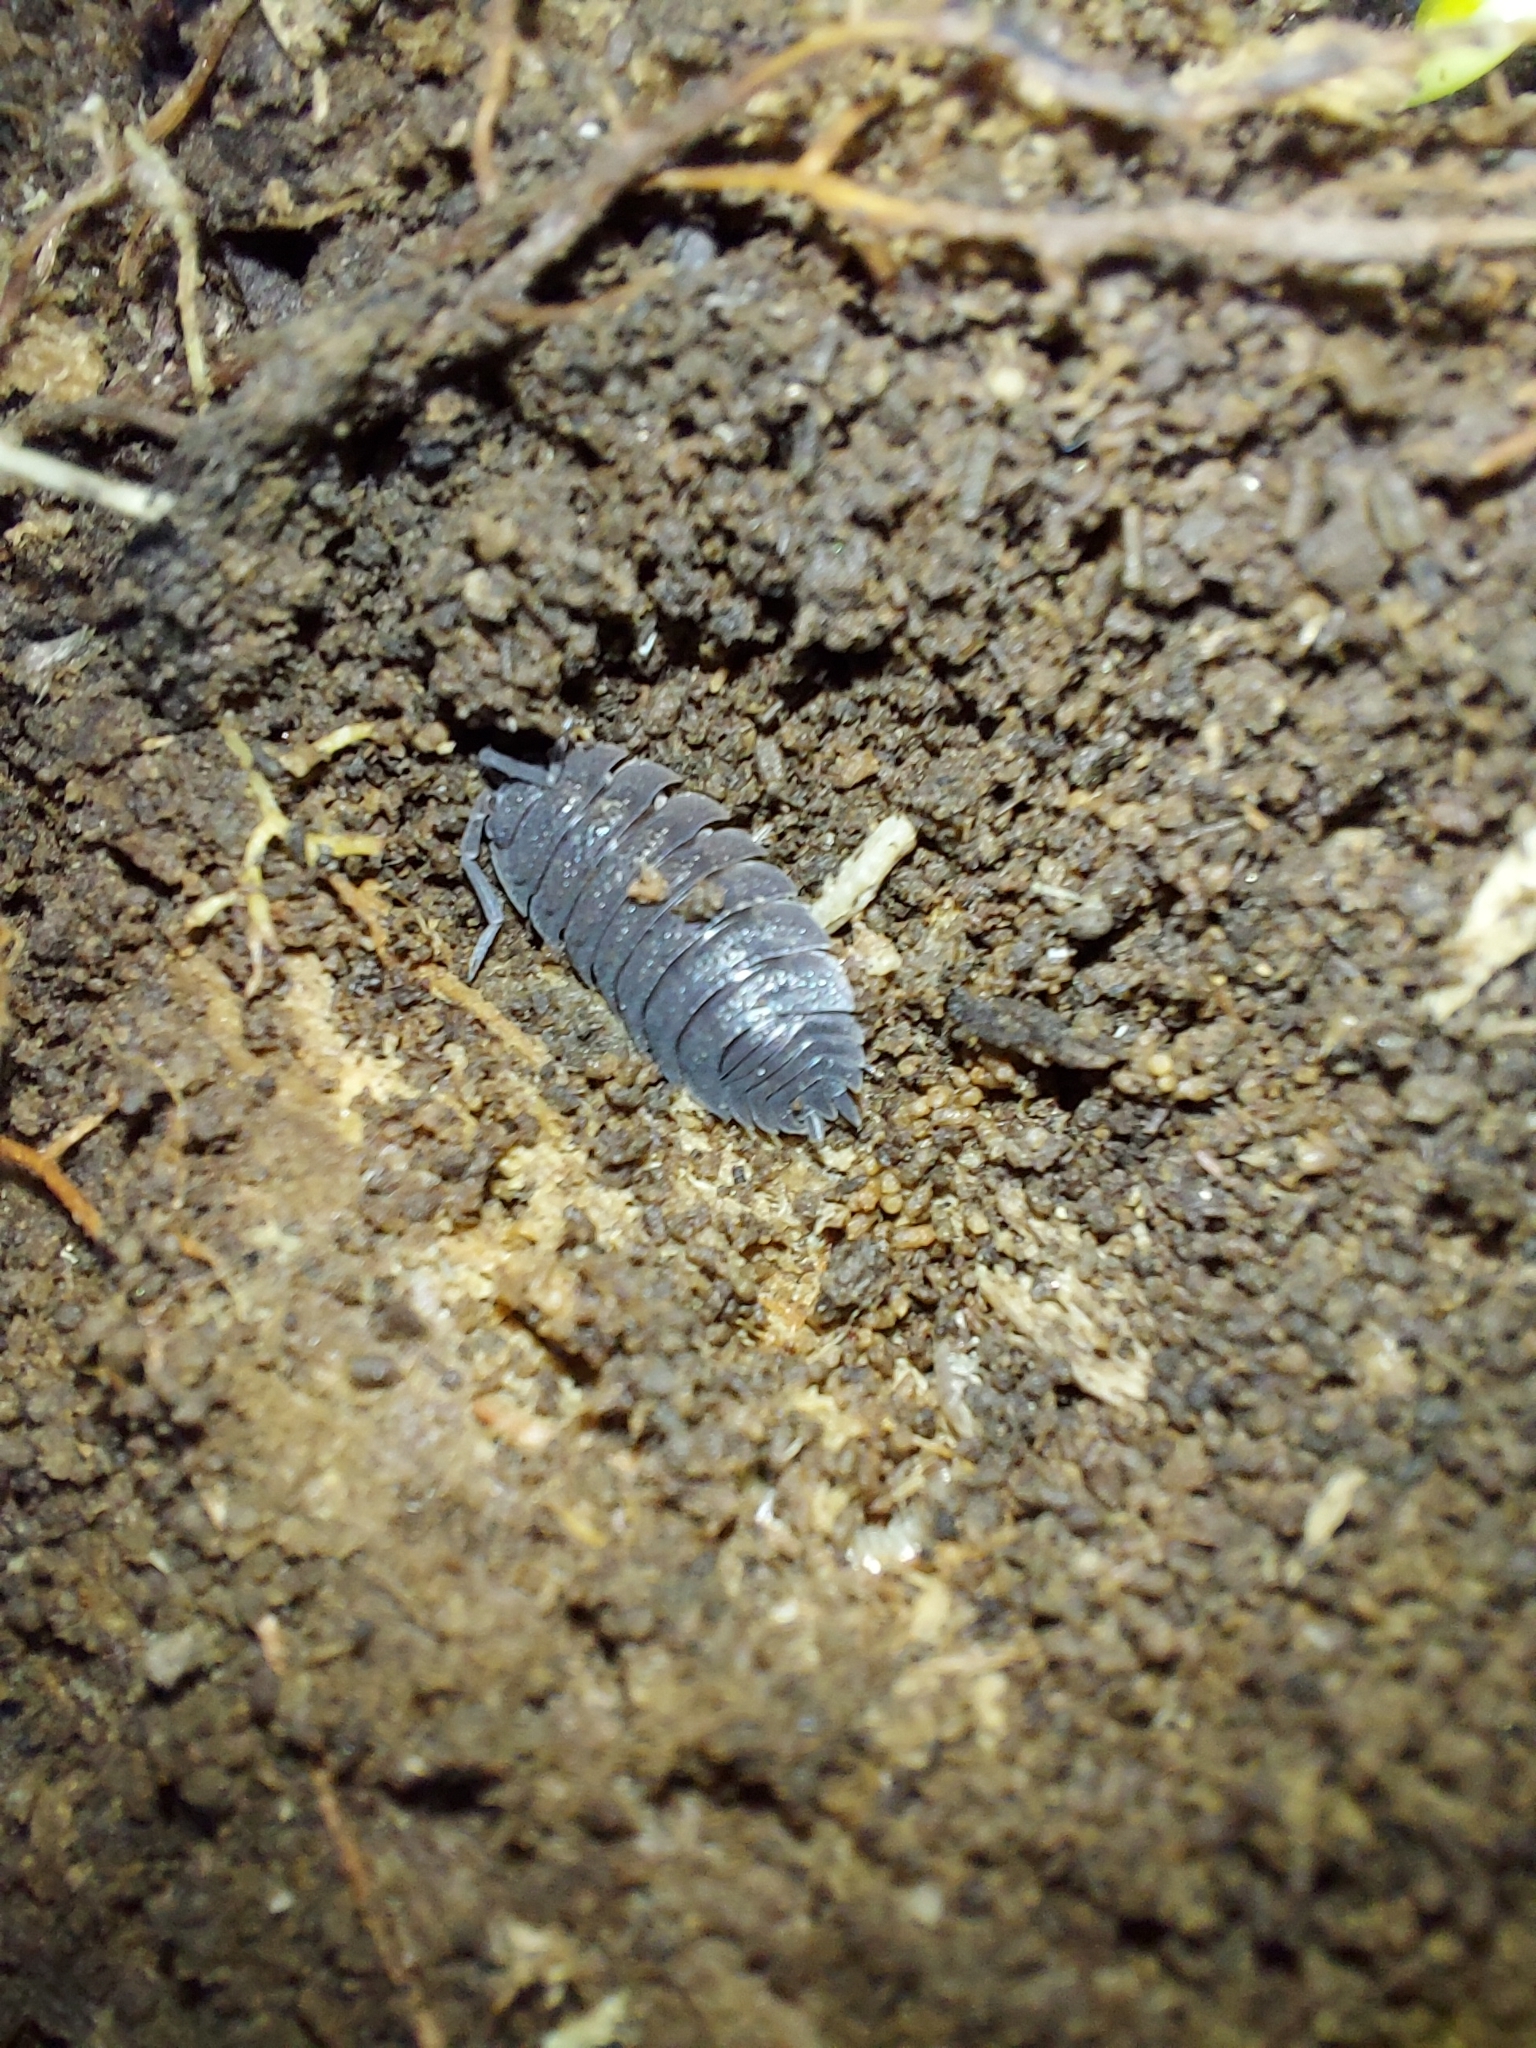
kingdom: Animalia
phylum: Arthropoda
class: Malacostraca
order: Isopoda
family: Porcellionidae
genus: Porcellio
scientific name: Porcellio scaber
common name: Common rough woodlouse
